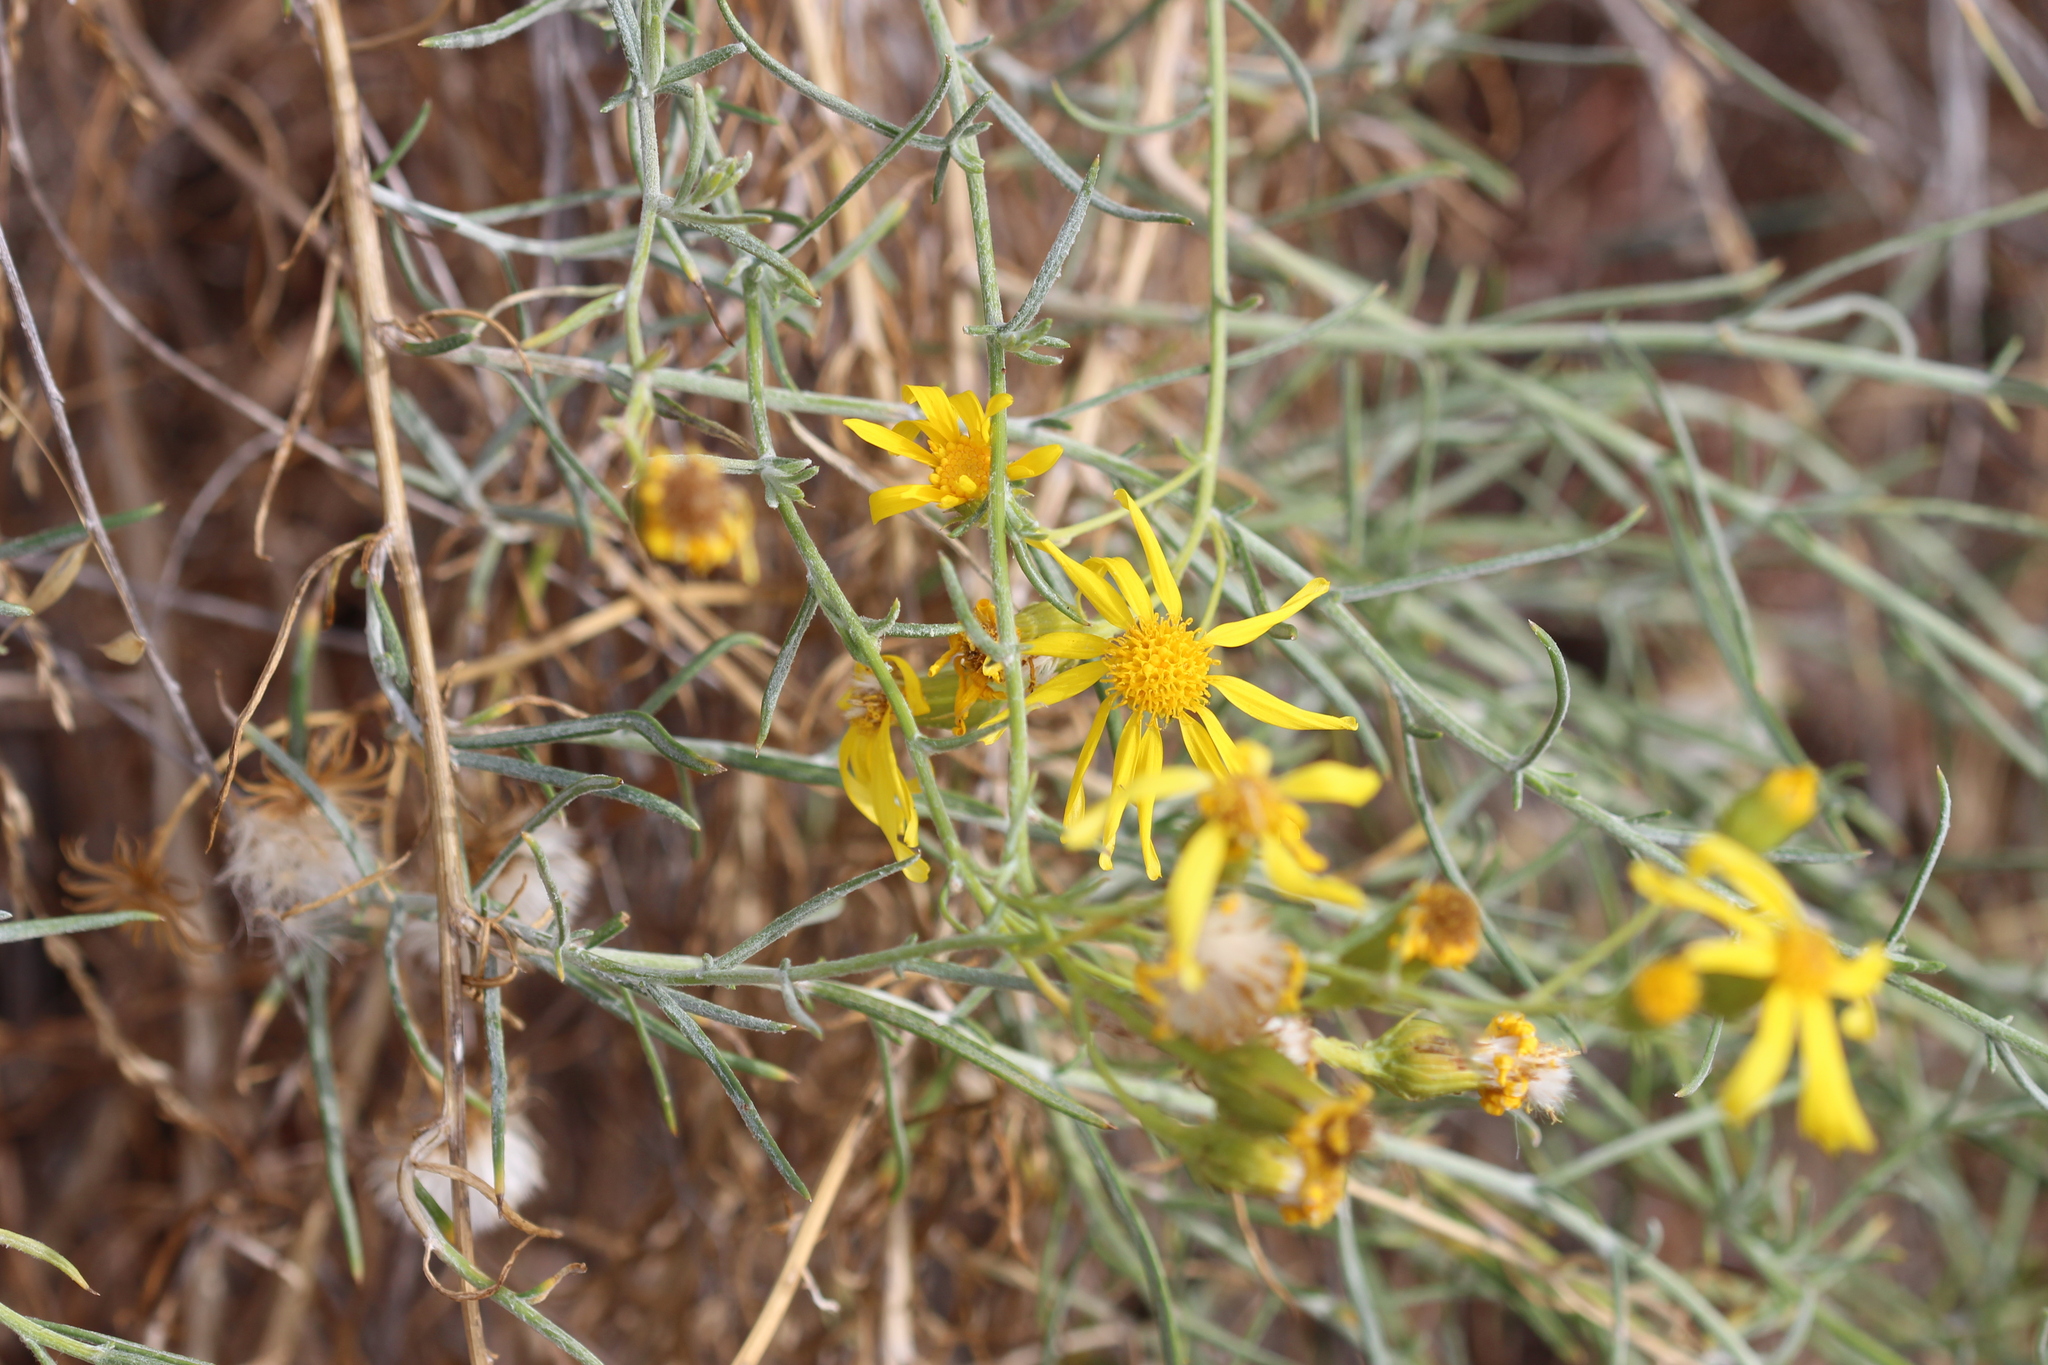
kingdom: Plantae
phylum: Tracheophyta
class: Magnoliopsida
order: Asterales
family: Asteraceae
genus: Senecio
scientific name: Senecio flaccidus
